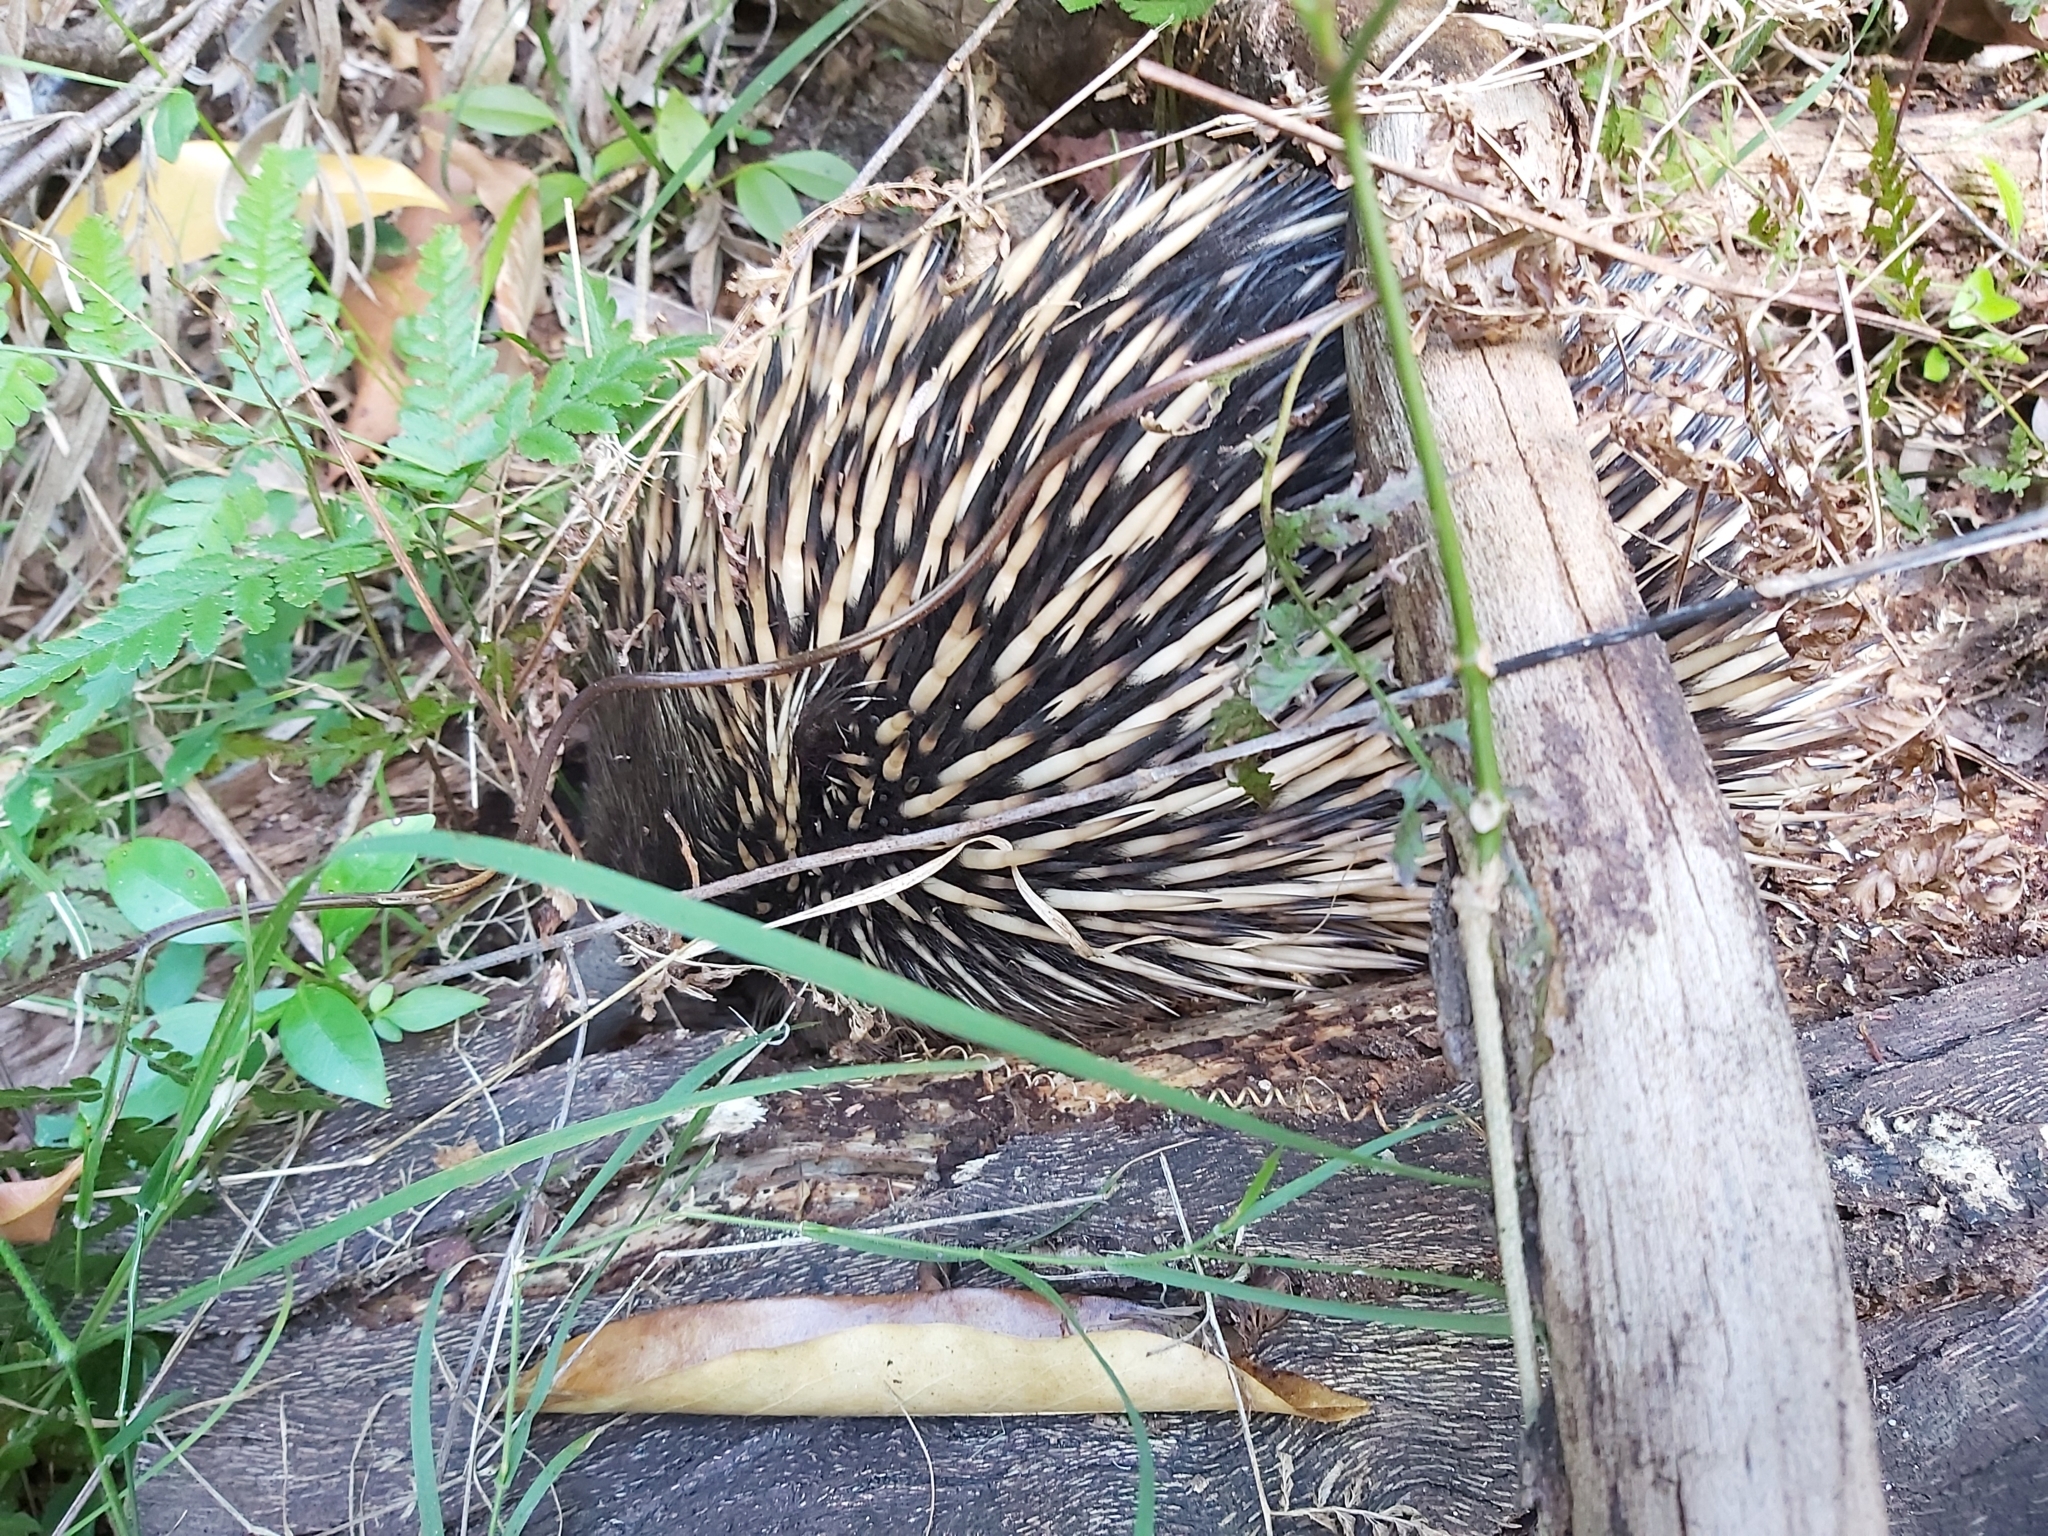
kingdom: Animalia
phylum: Chordata
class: Mammalia
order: Monotremata
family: Tachyglossidae
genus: Tachyglossus
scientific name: Tachyglossus aculeatus
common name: Short-beaked echidna
